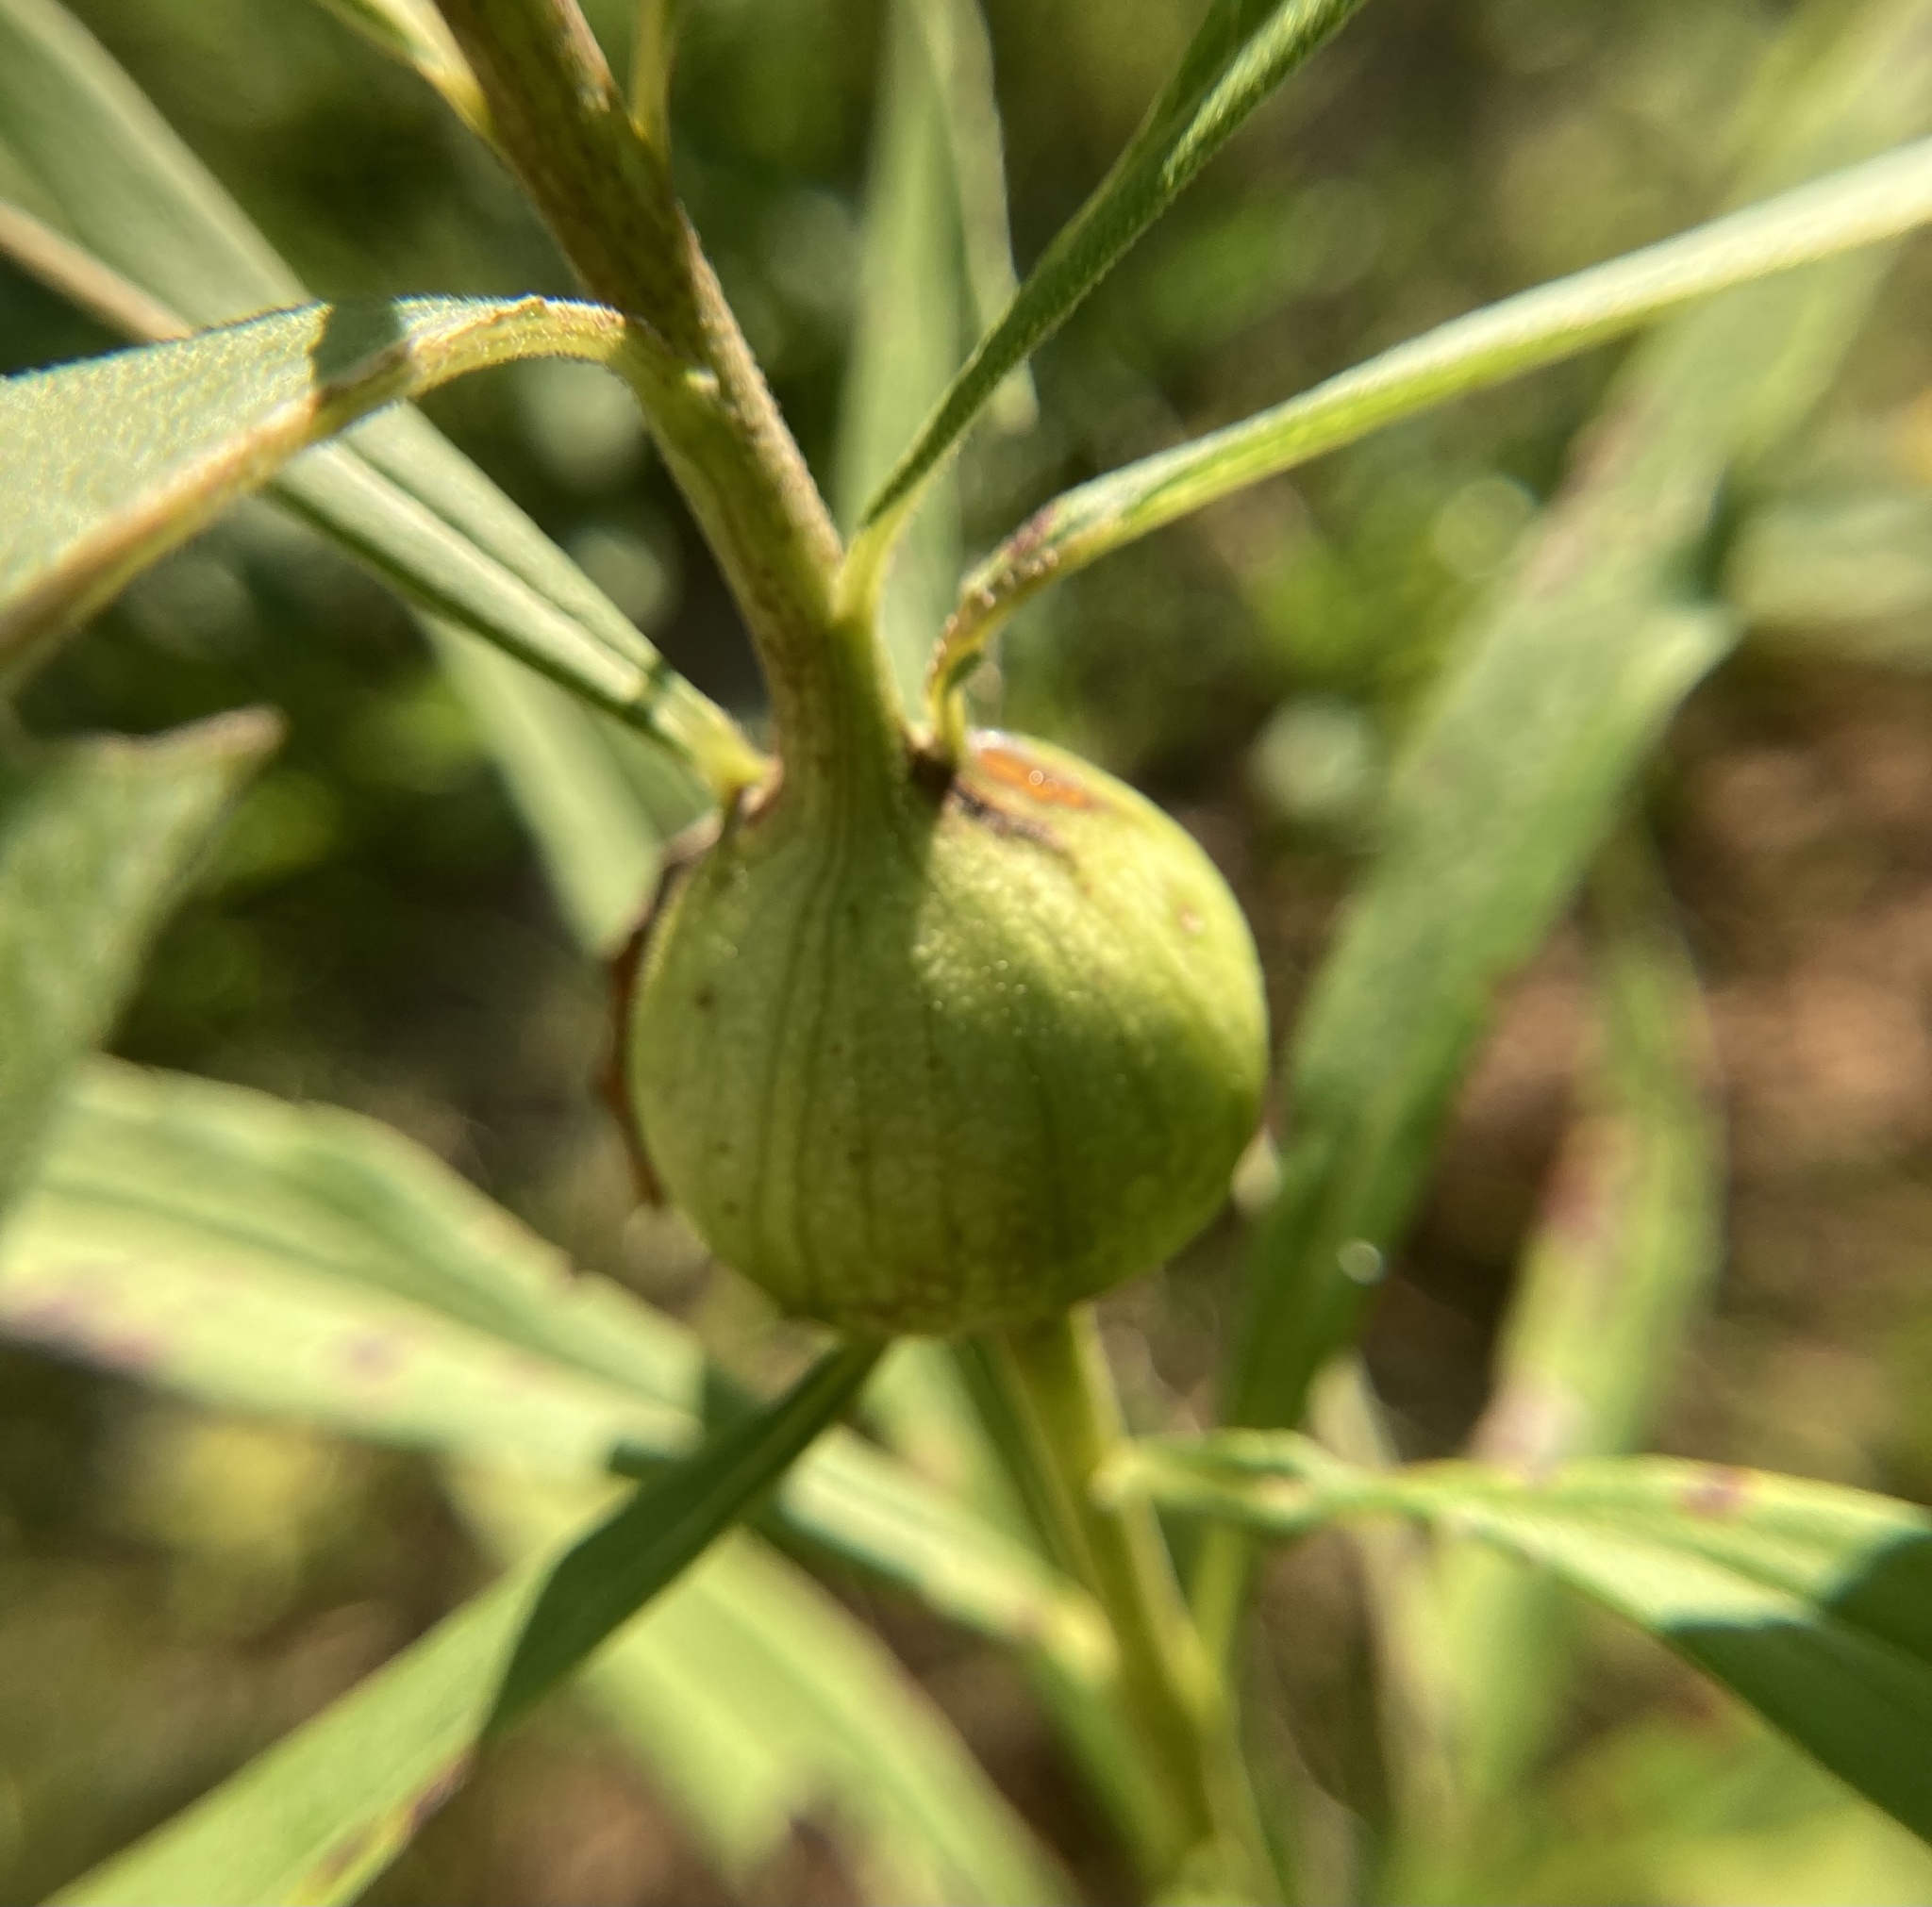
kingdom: Animalia
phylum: Arthropoda
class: Insecta
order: Diptera
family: Tephritidae
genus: Eurosta
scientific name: Eurosta solidaginis
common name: Goldenrod gall fly
